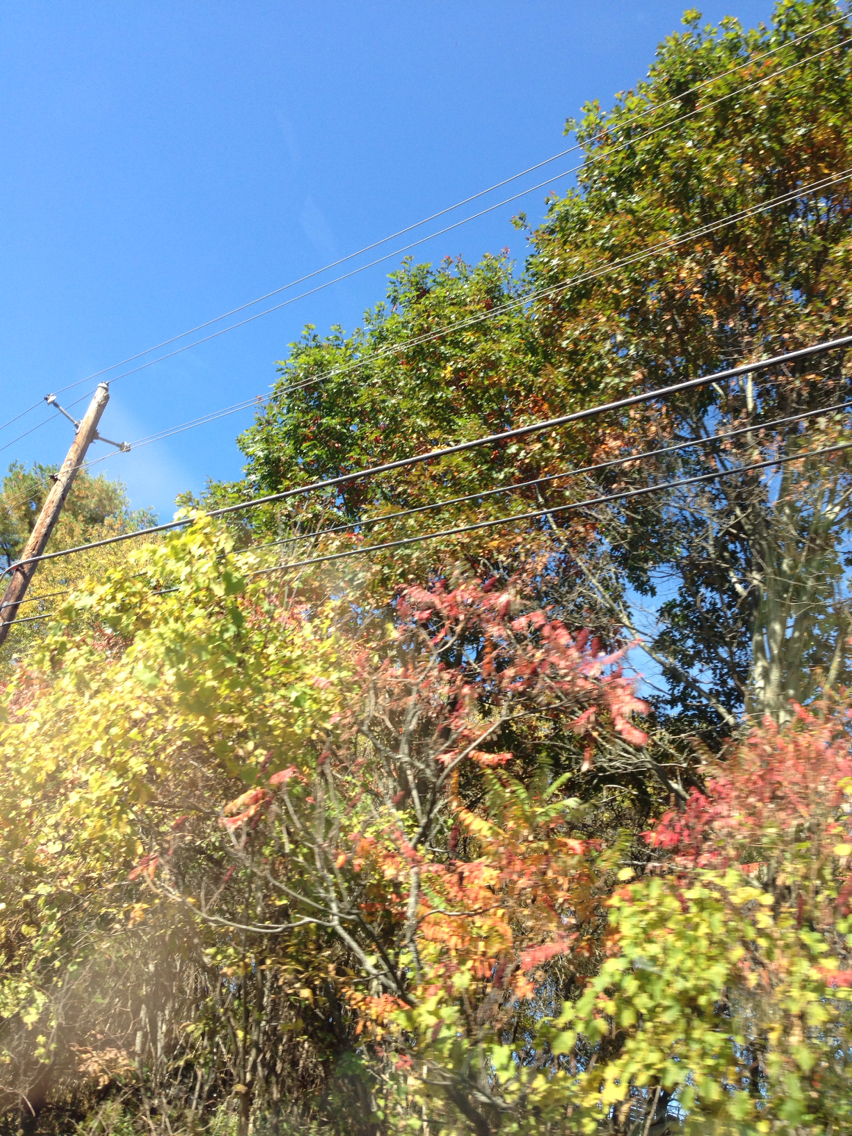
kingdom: Plantae
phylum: Tracheophyta
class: Magnoliopsida
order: Fagales
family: Fagaceae
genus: Quercus
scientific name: Quercus rubra
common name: Red oak
